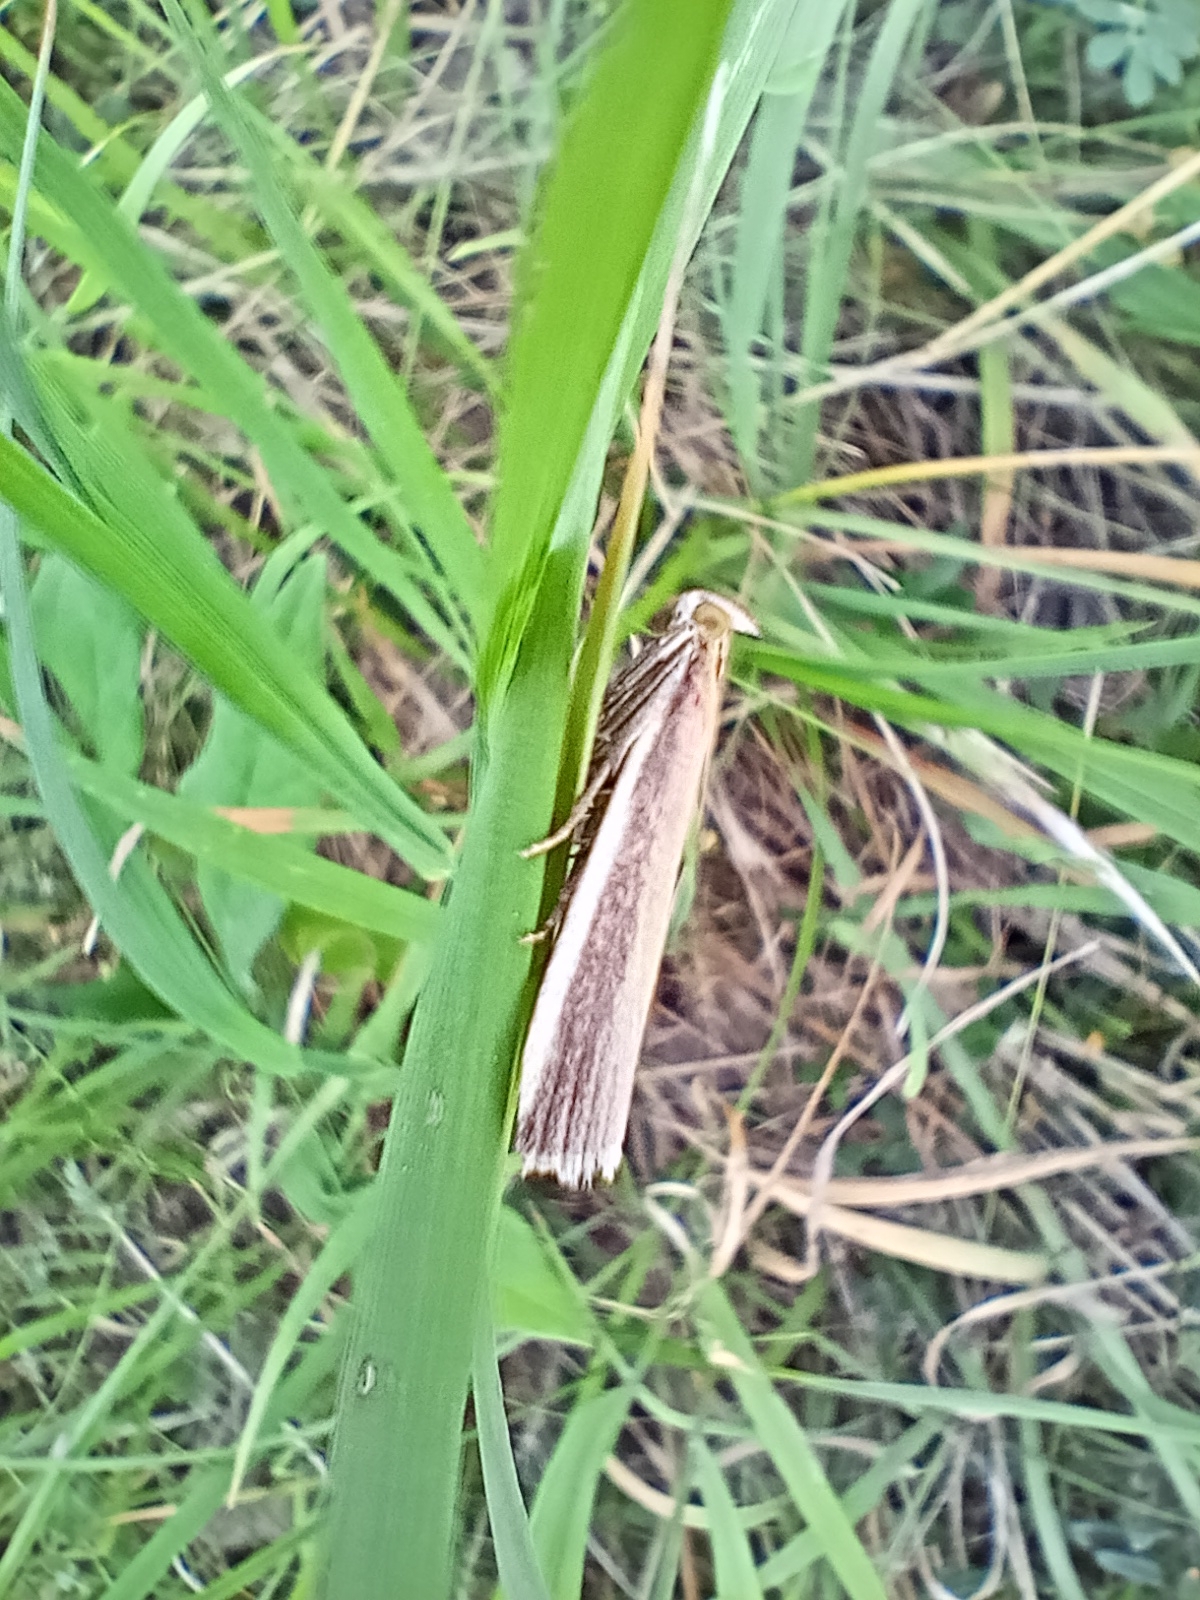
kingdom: Animalia
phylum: Arthropoda
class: Insecta
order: Lepidoptera
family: Pyralidae
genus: Oncocera
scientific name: Oncocera semirubella
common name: Rosy-striped knot-horn
